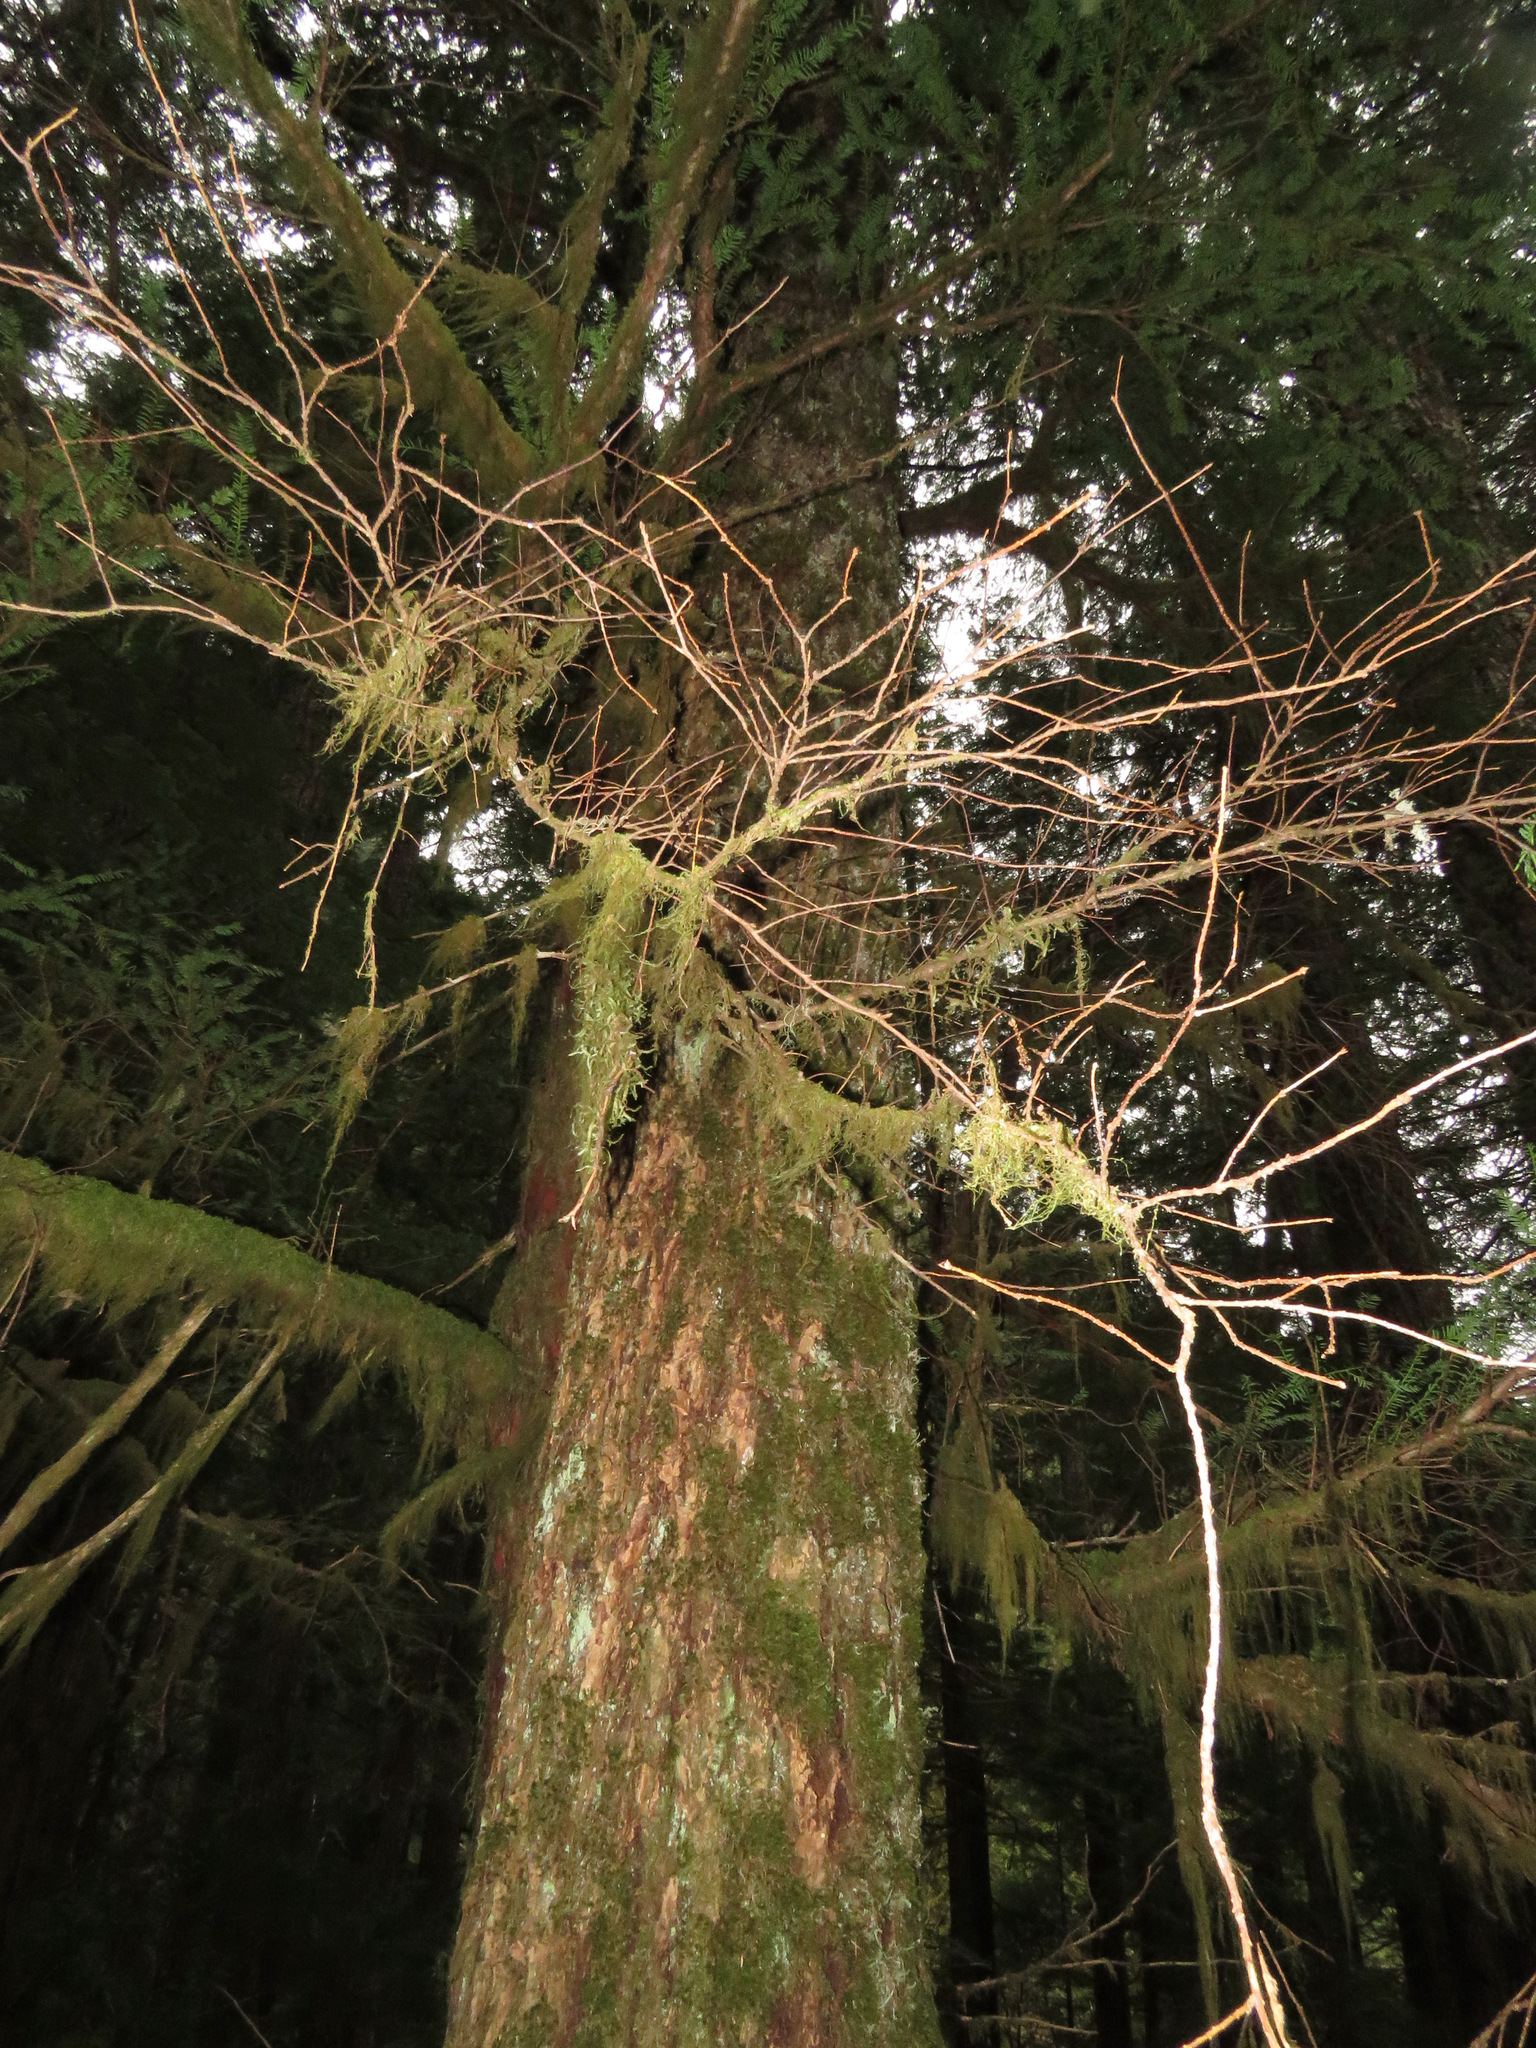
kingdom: Plantae
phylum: Tracheophyta
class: Pinopsida
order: Pinales
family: Taxaceae
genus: Taxus
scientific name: Taxus brevifolia
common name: Pacific yew
